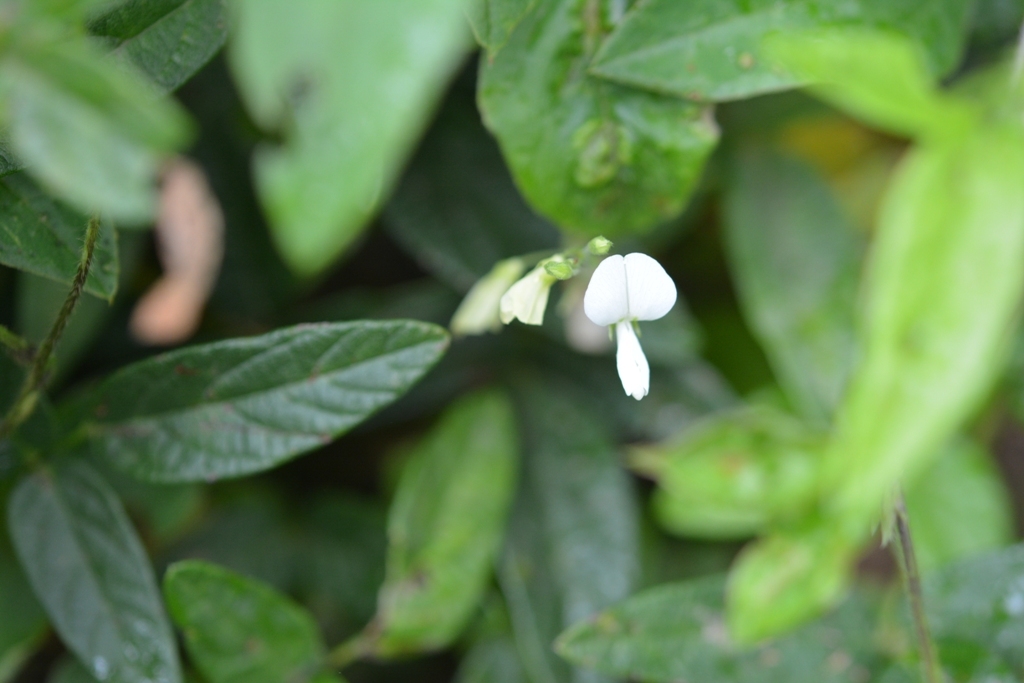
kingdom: Plantae
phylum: Tracheophyta
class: Magnoliopsida
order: Fabales
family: Fabaceae
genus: Desmodium
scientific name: Desmodium macrostachyum
